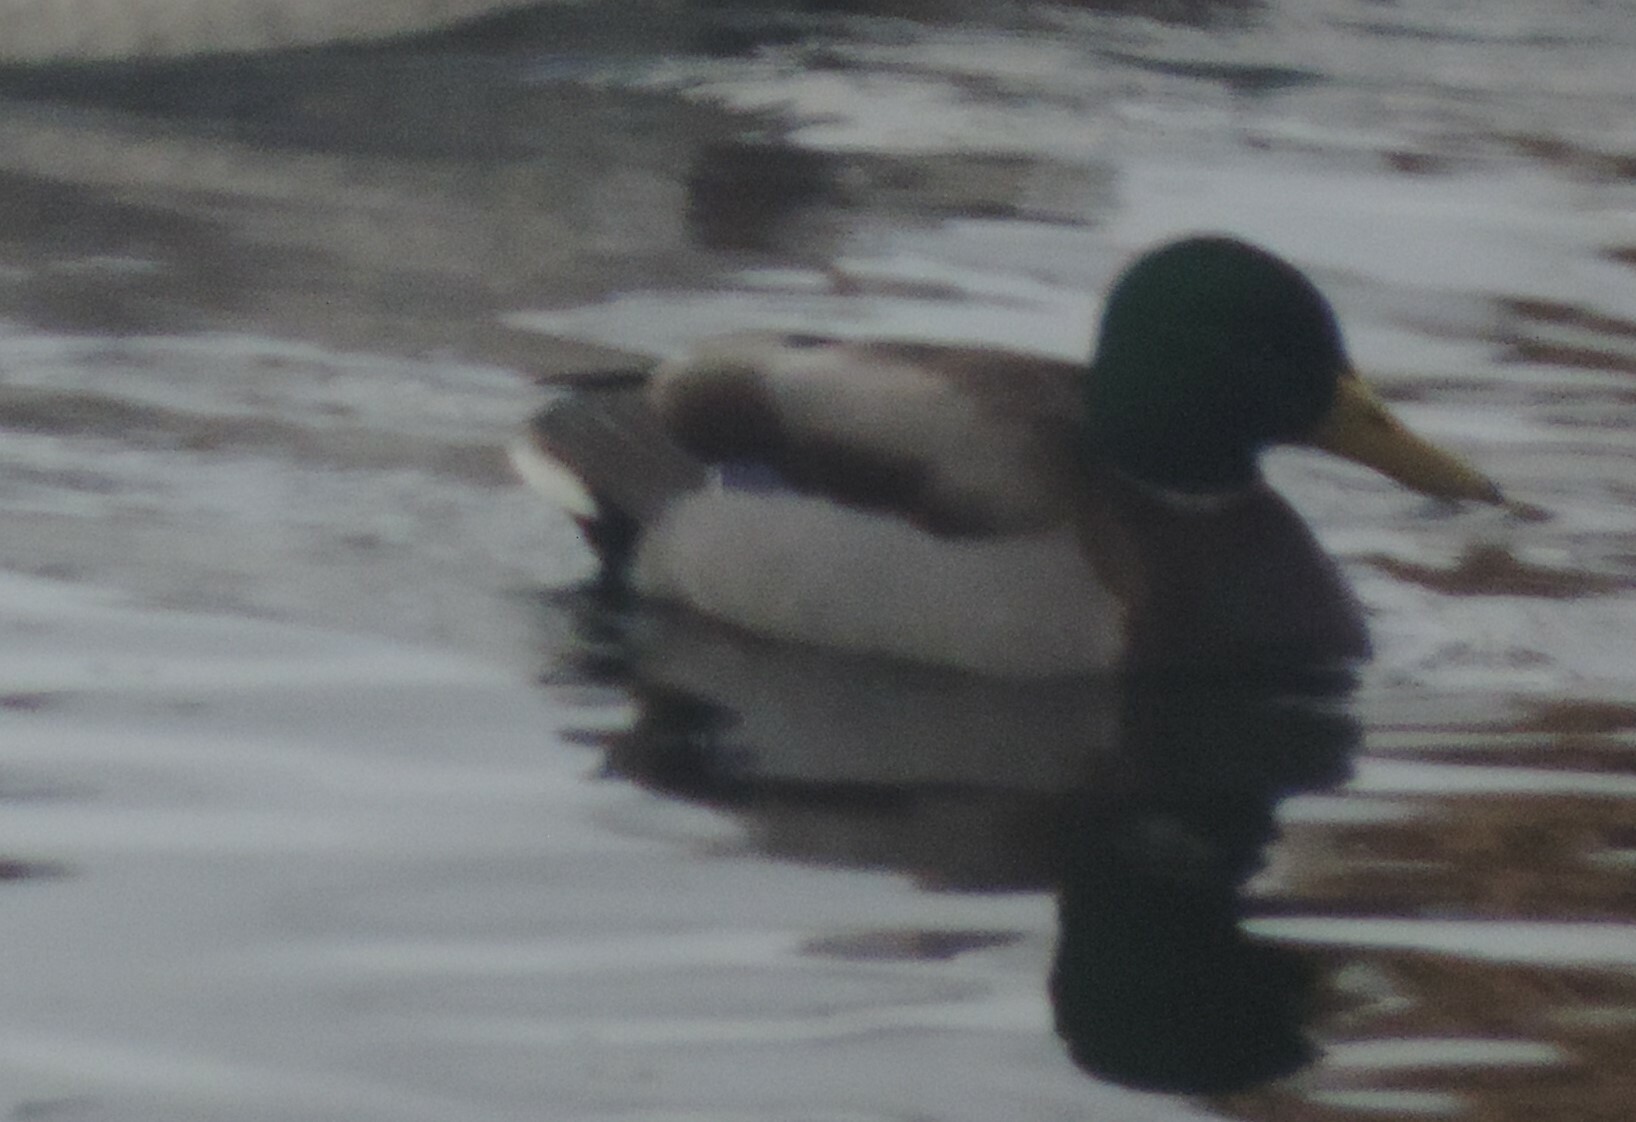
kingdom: Animalia
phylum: Chordata
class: Aves
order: Anseriformes
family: Anatidae
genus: Anas
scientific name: Anas platyrhynchos
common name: Mallard
